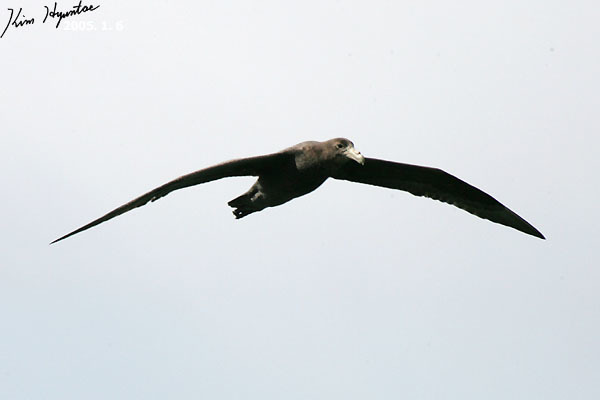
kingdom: Animalia
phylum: Chordata
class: Aves
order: Procellariiformes
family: Procellariidae
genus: Macronectes
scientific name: Macronectes giganteus
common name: Southern giant petrel
